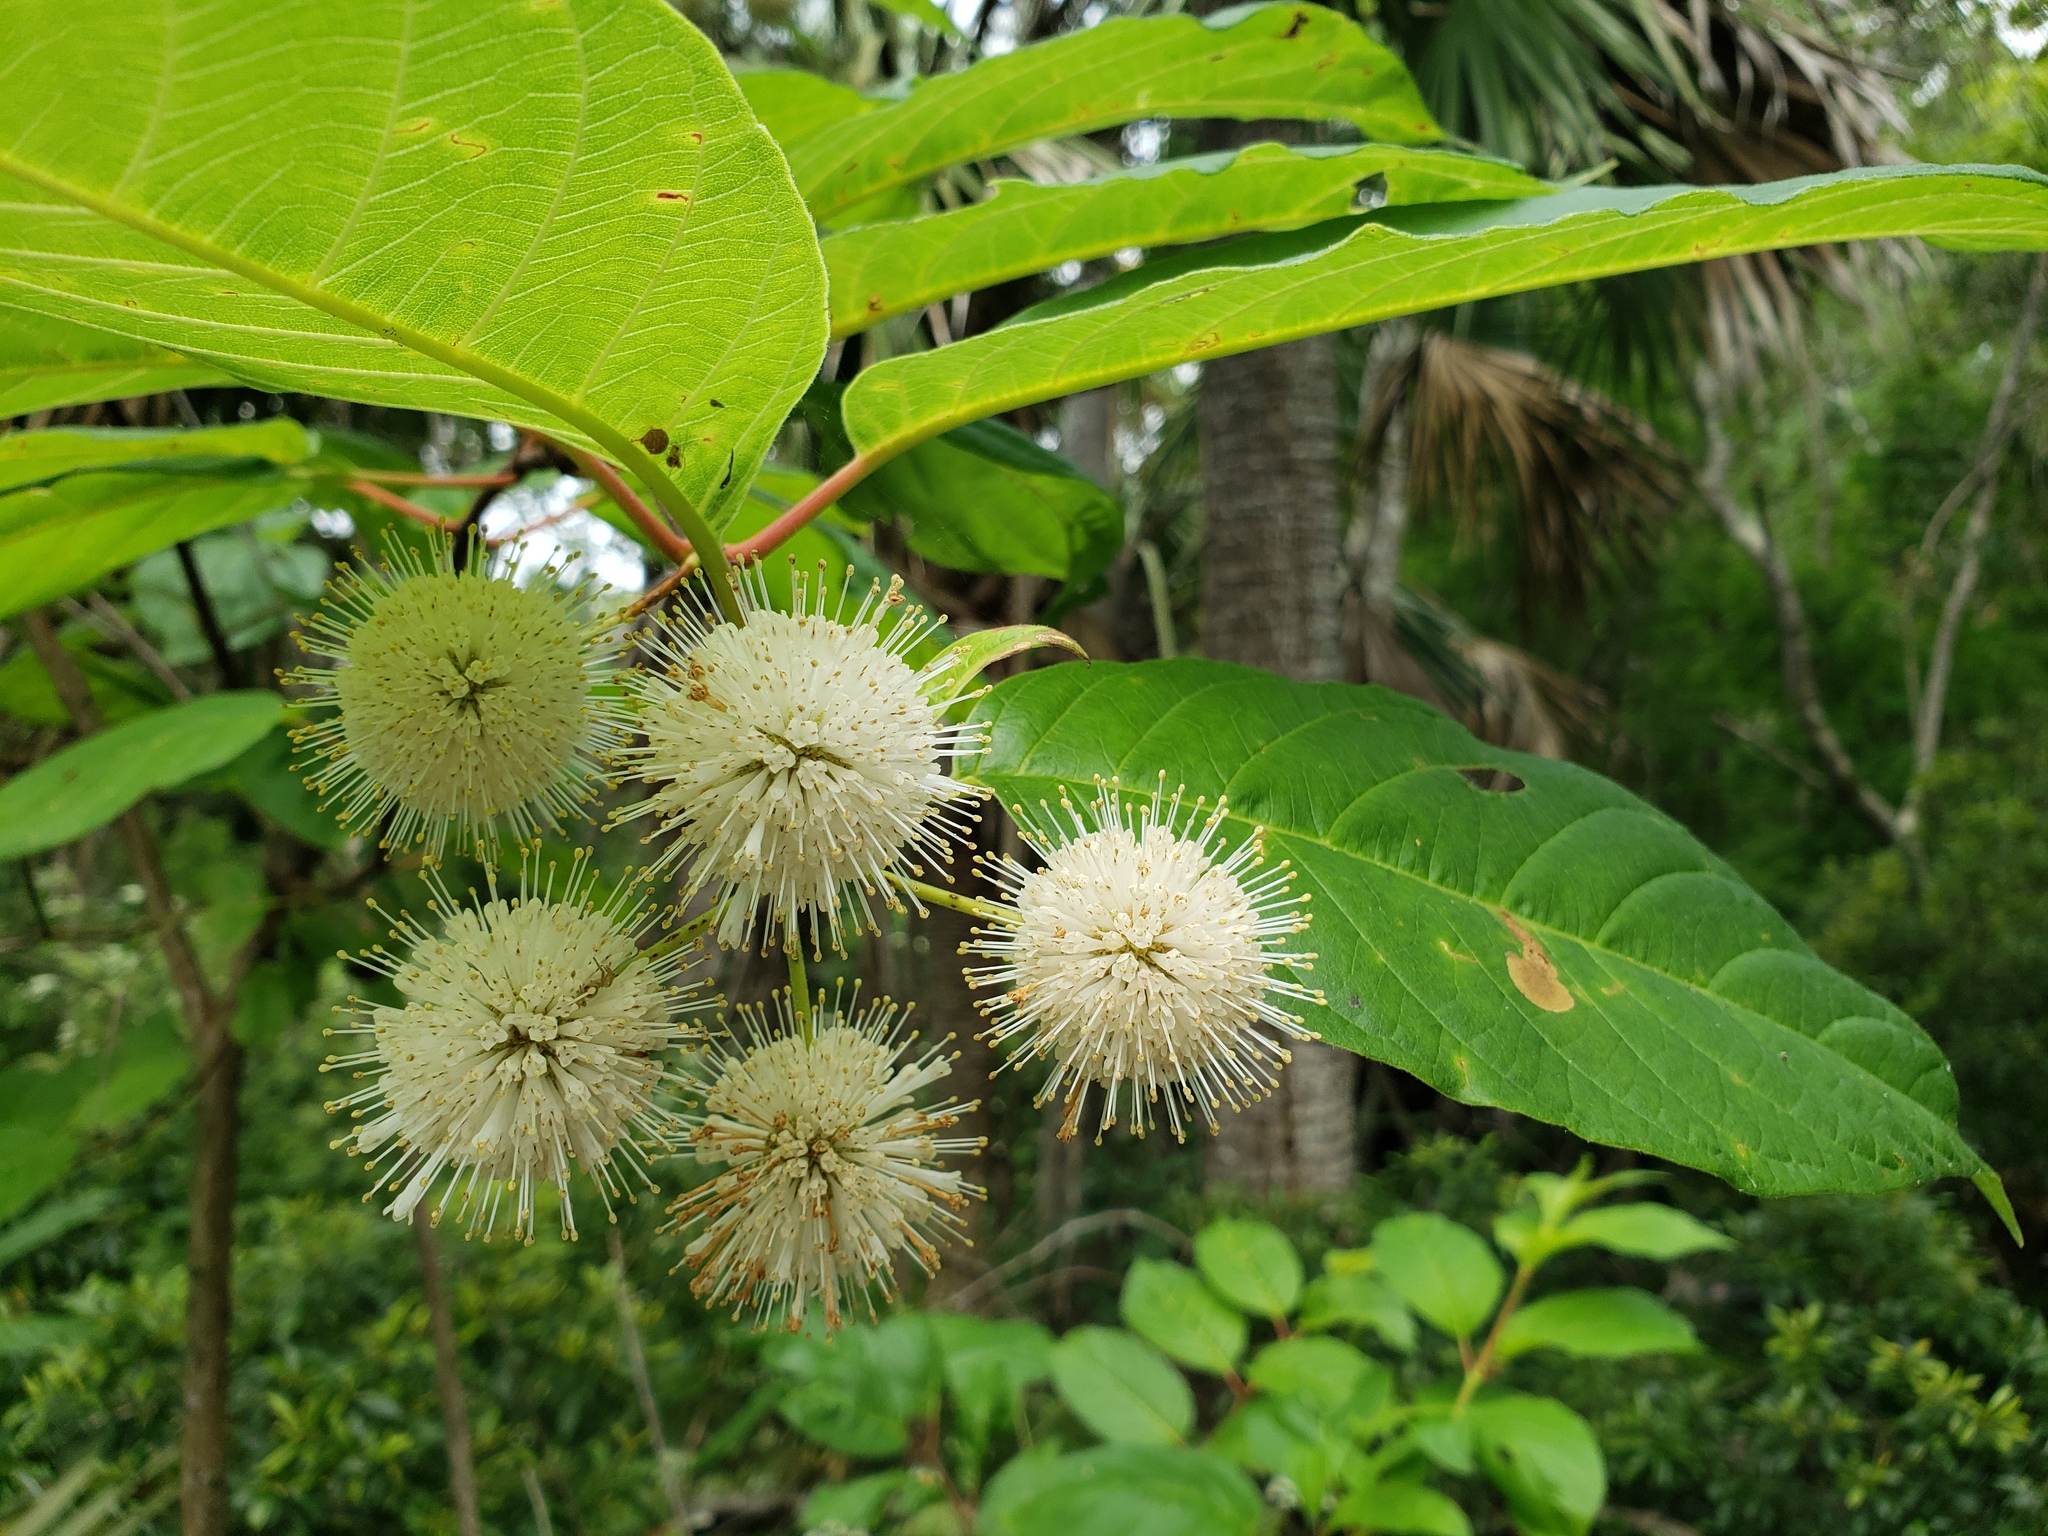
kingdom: Plantae
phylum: Tracheophyta
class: Magnoliopsida
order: Gentianales
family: Rubiaceae
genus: Cephalanthus
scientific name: Cephalanthus occidentalis
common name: Button-willow
